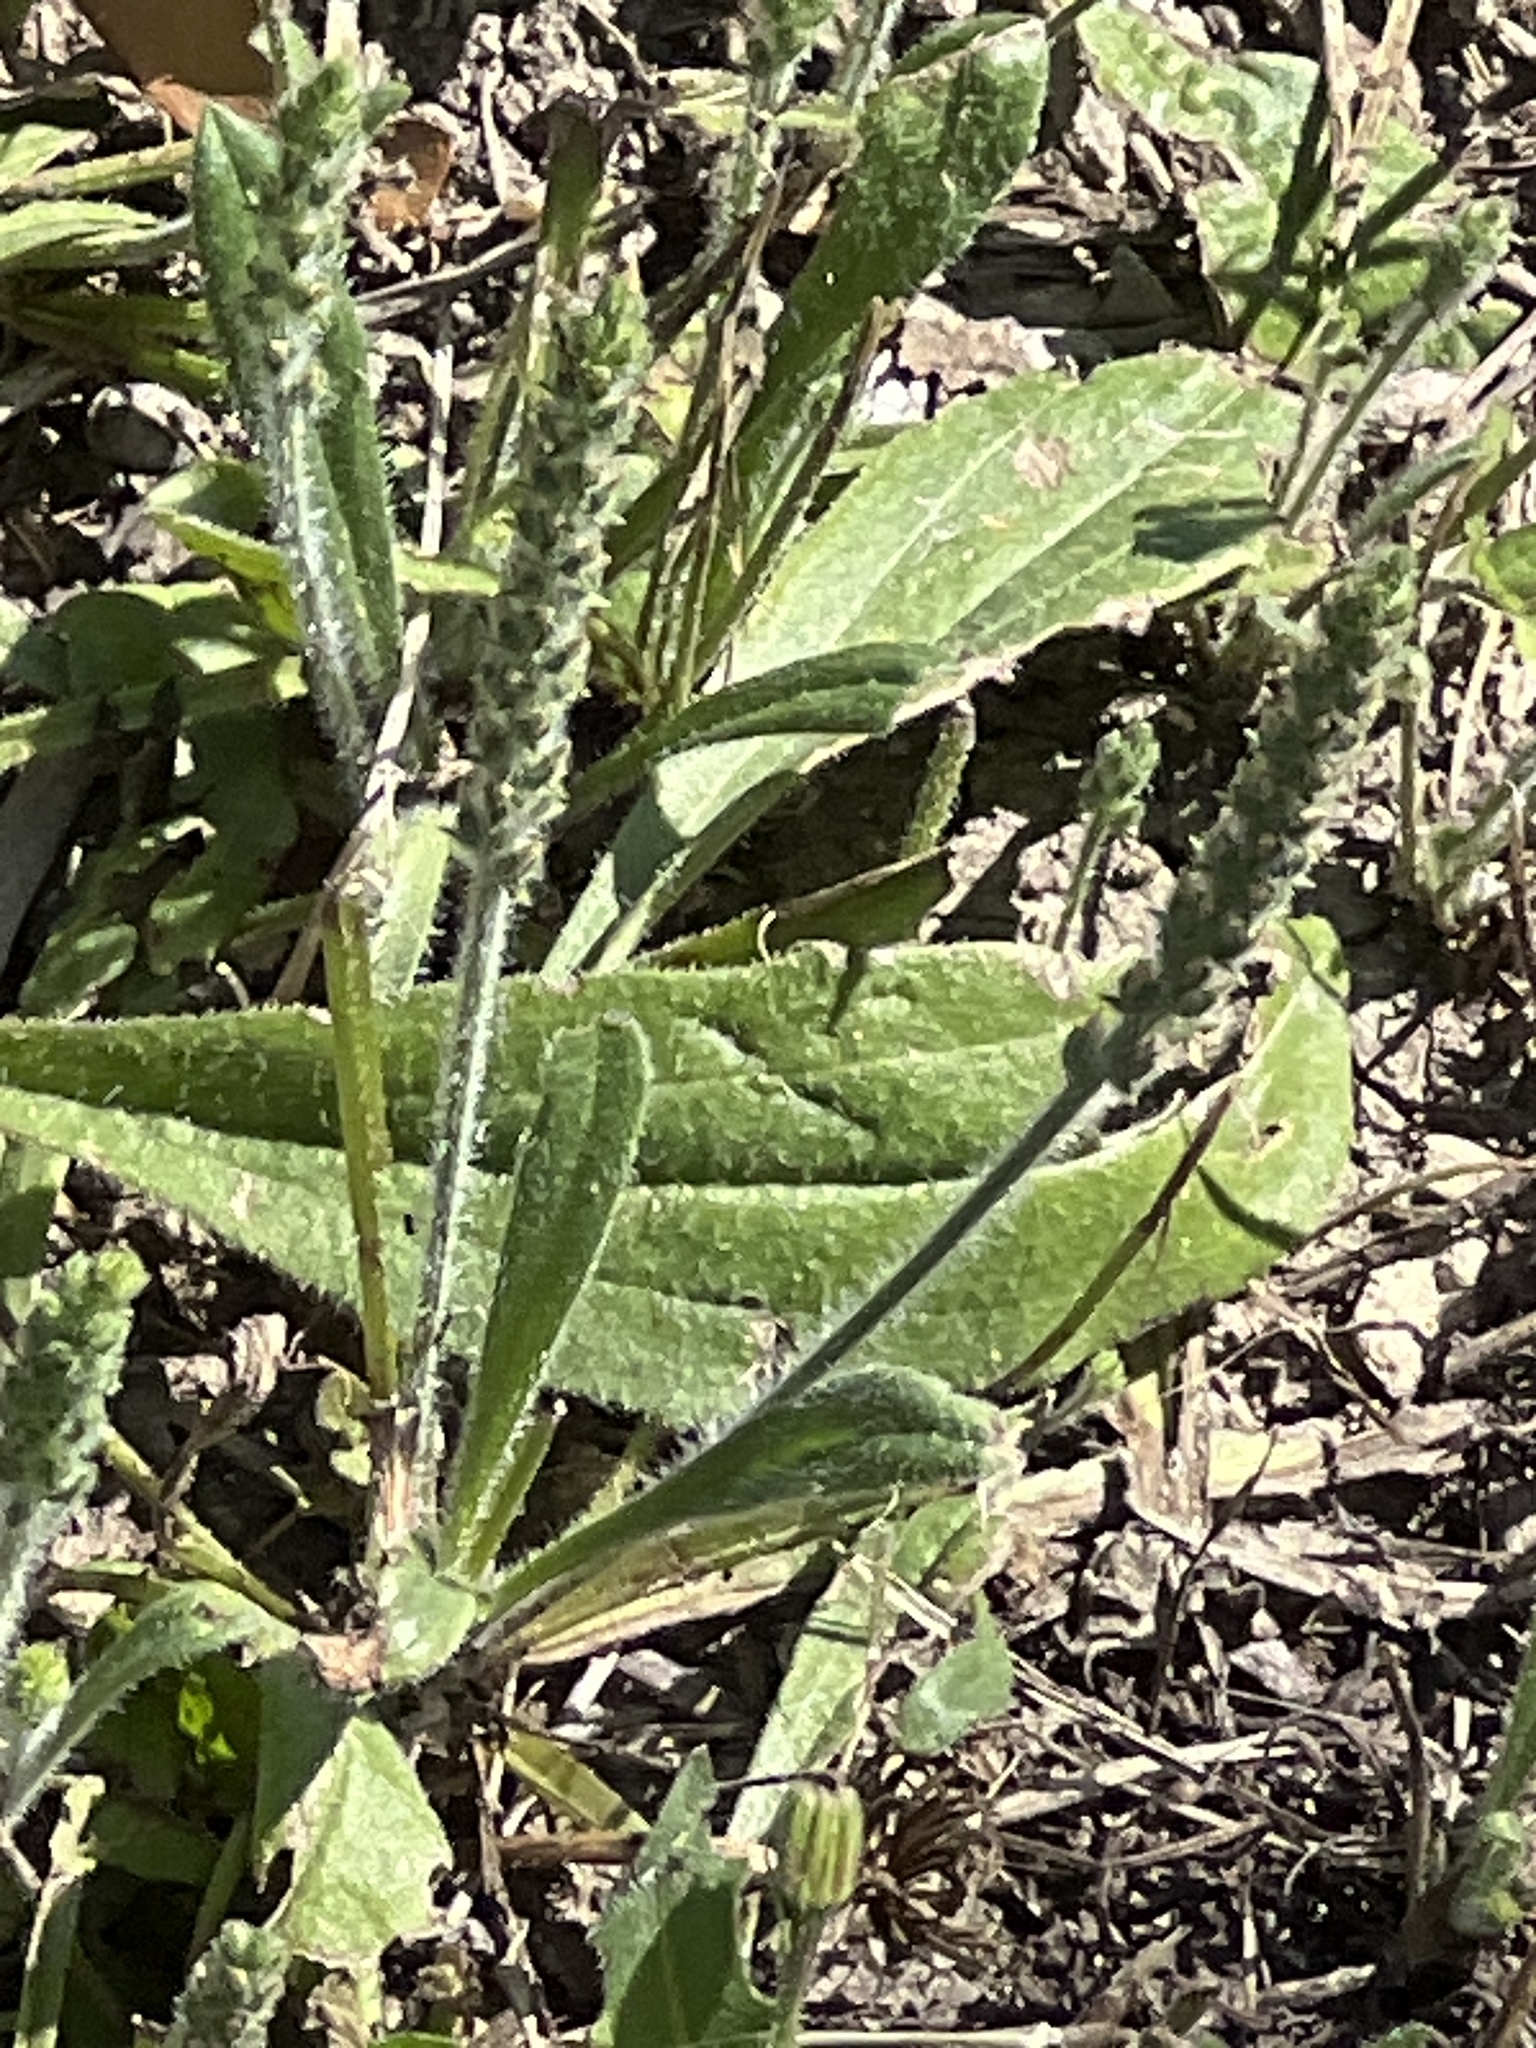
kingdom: Plantae
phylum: Tracheophyta
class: Magnoliopsida
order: Lamiales
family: Plantaginaceae
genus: Plantago
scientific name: Plantago rhodosperma
